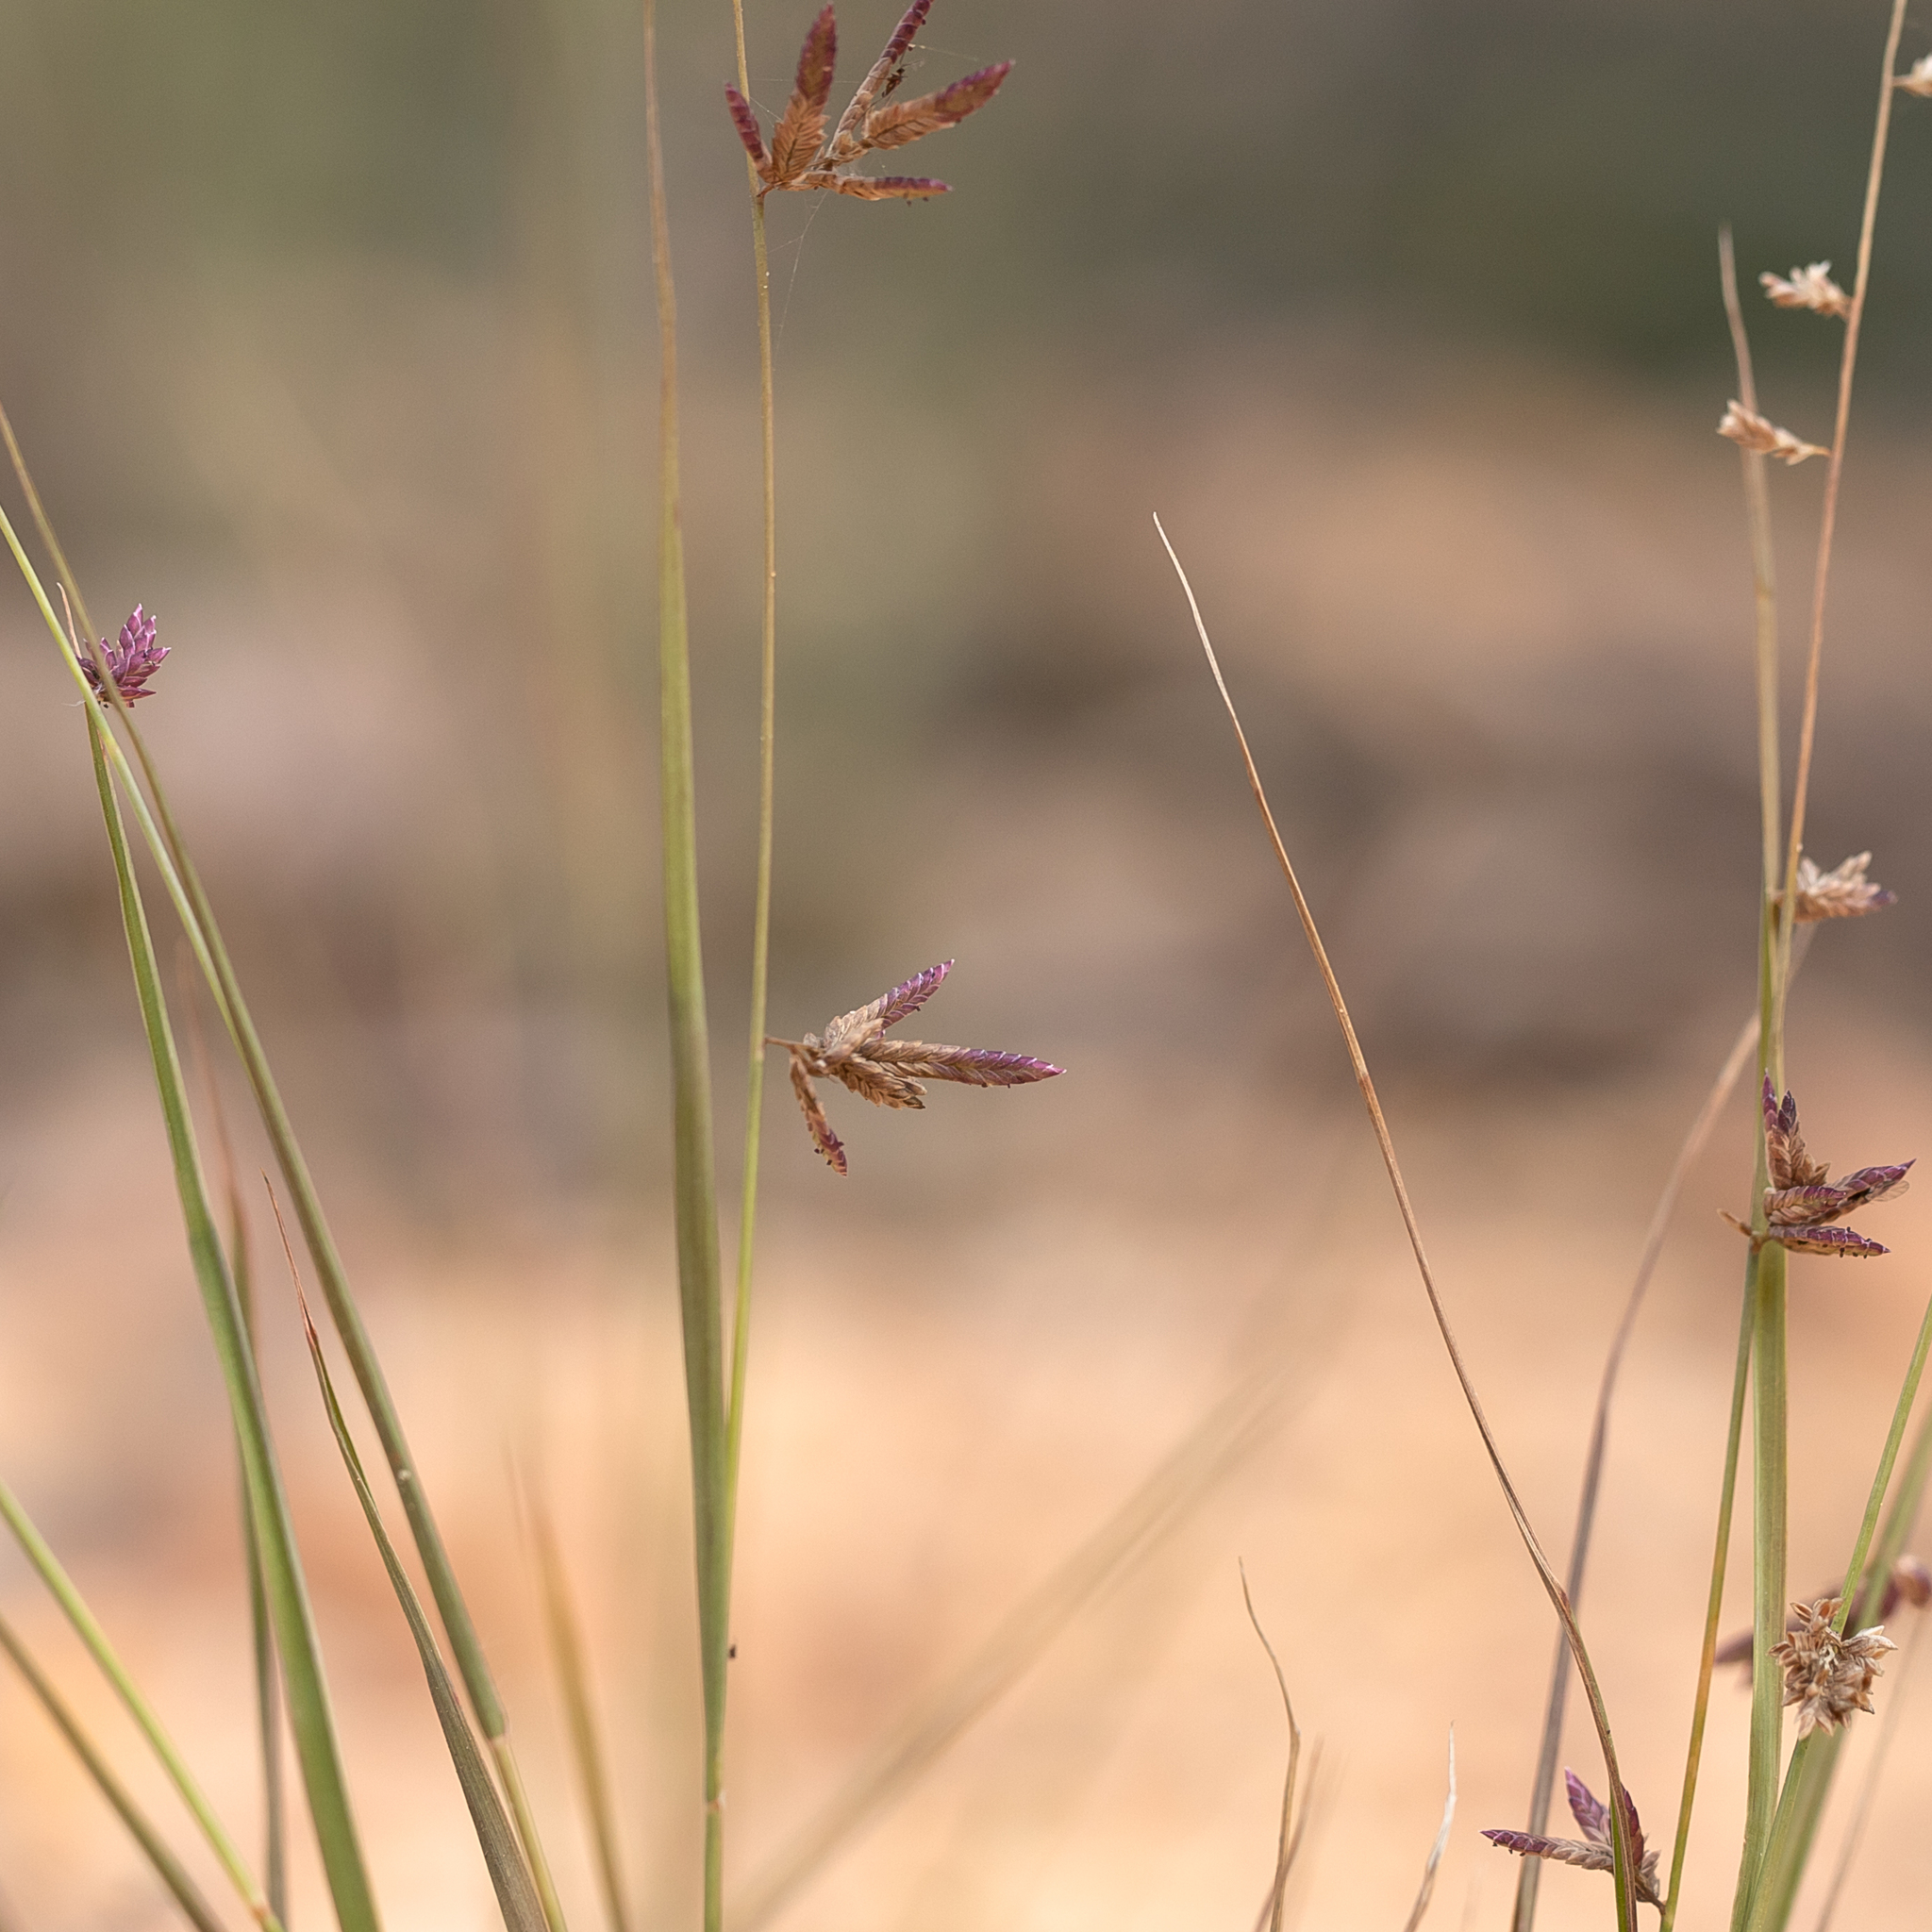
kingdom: Plantae
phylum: Tracheophyta
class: Liliopsida
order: Poales
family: Poaceae
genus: Eragrostis
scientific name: Eragrostis sororia
